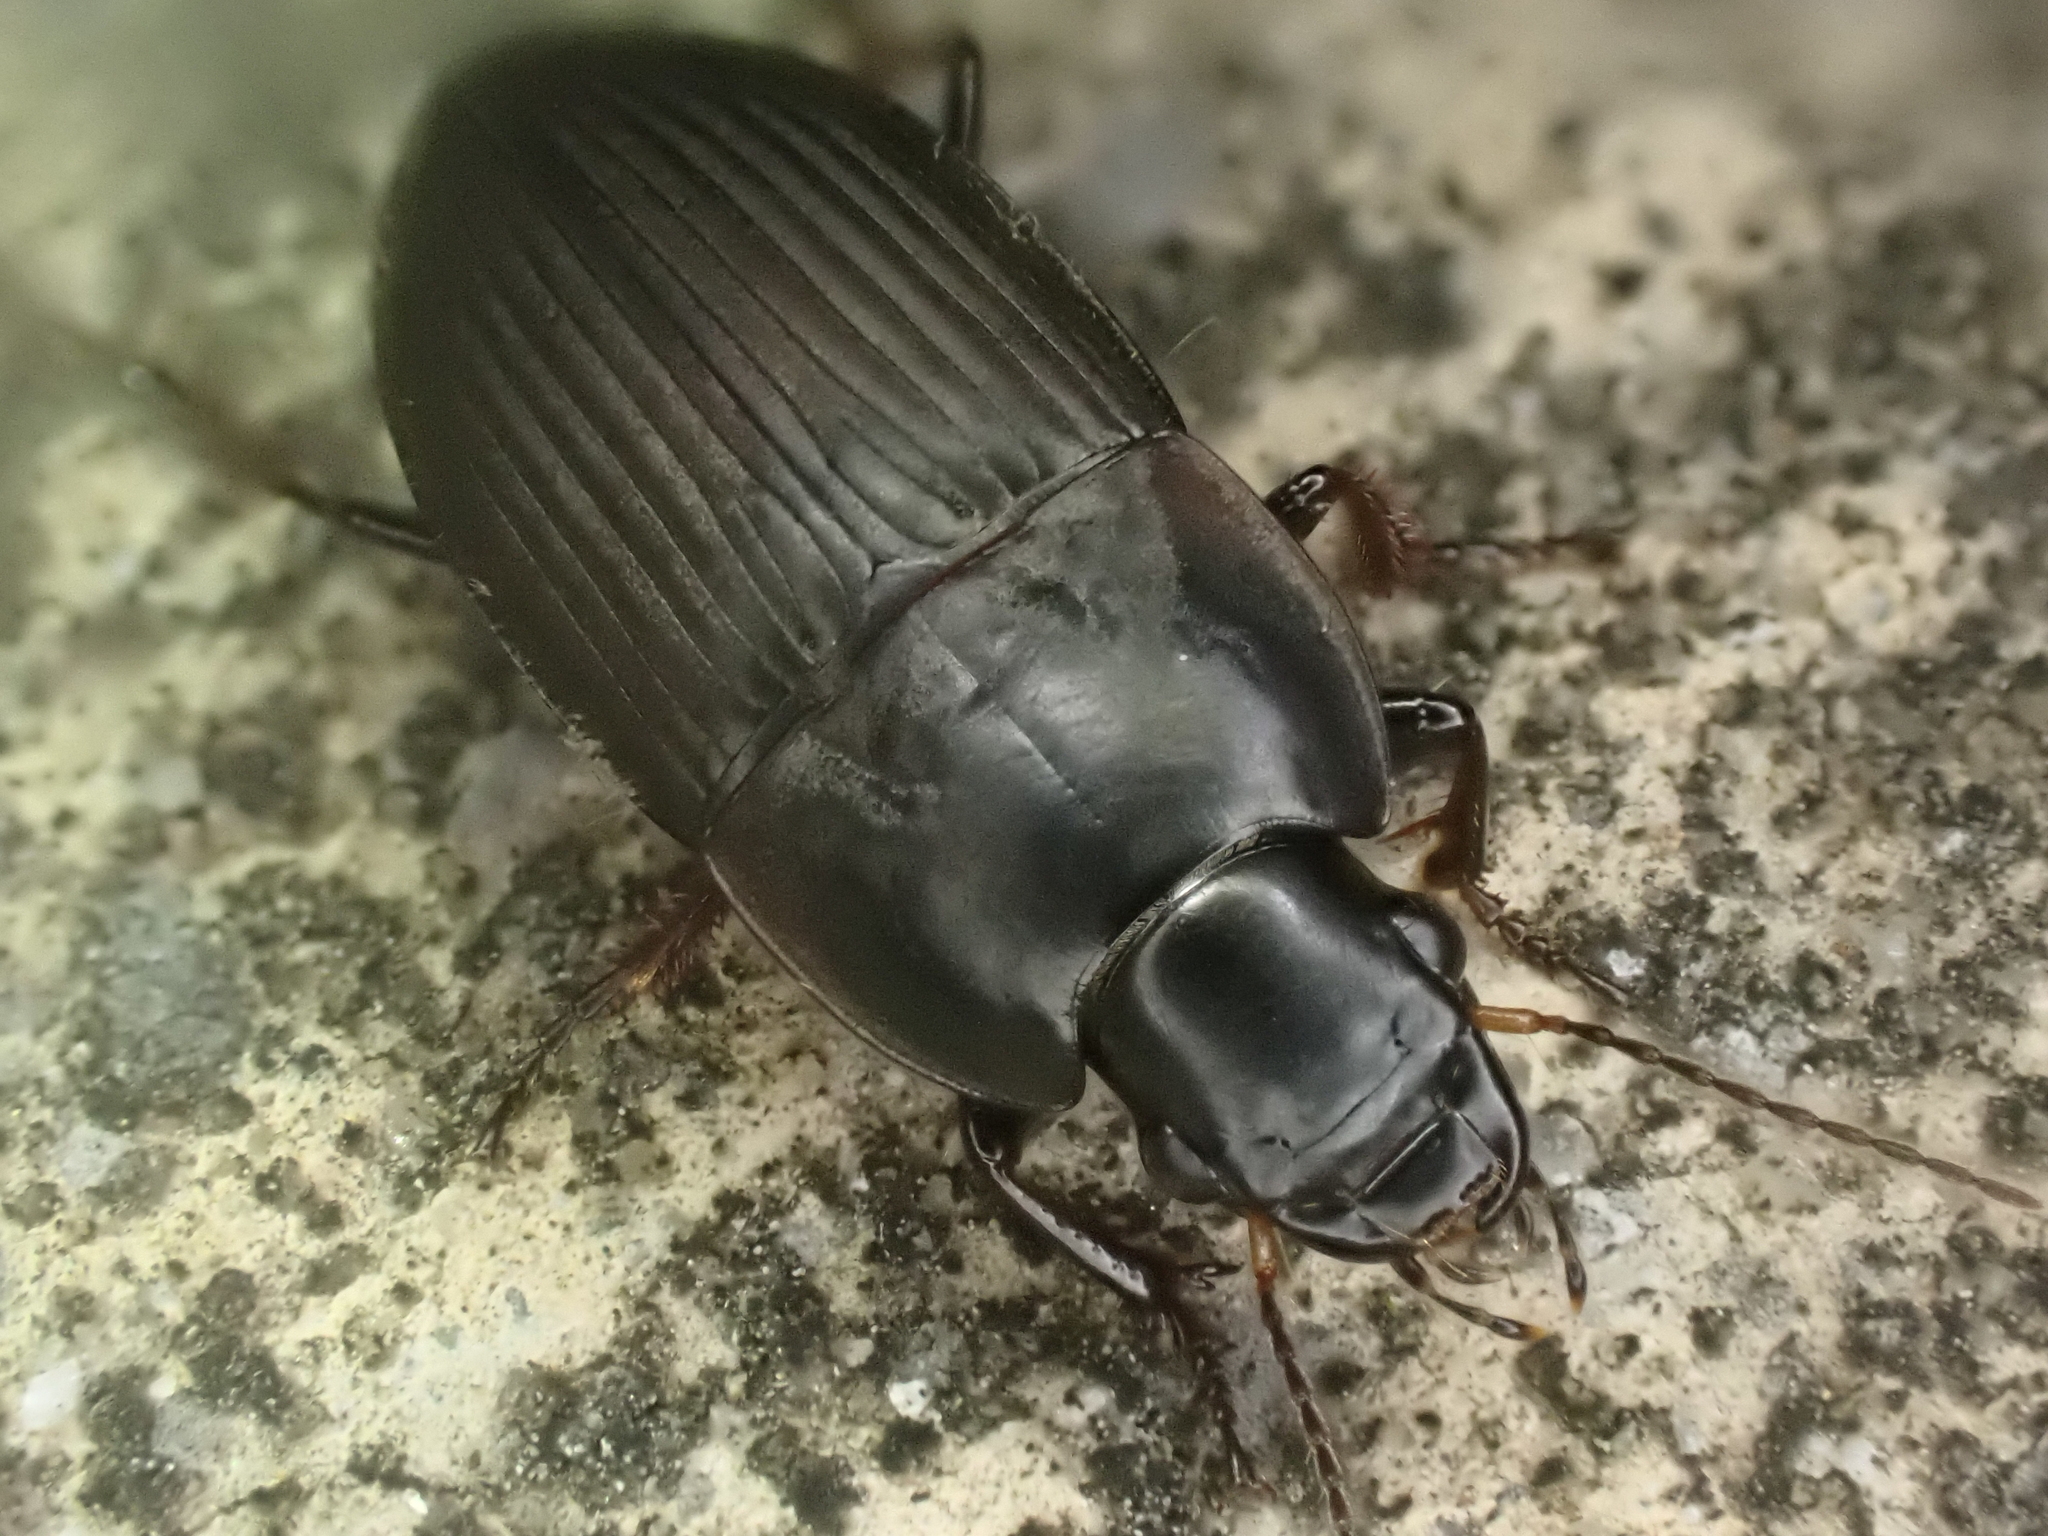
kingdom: Animalia
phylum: Arthropoda
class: Insecta
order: Coleoptera
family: Carabidae
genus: Anisodactylus
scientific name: Anisodactylus rusticus
